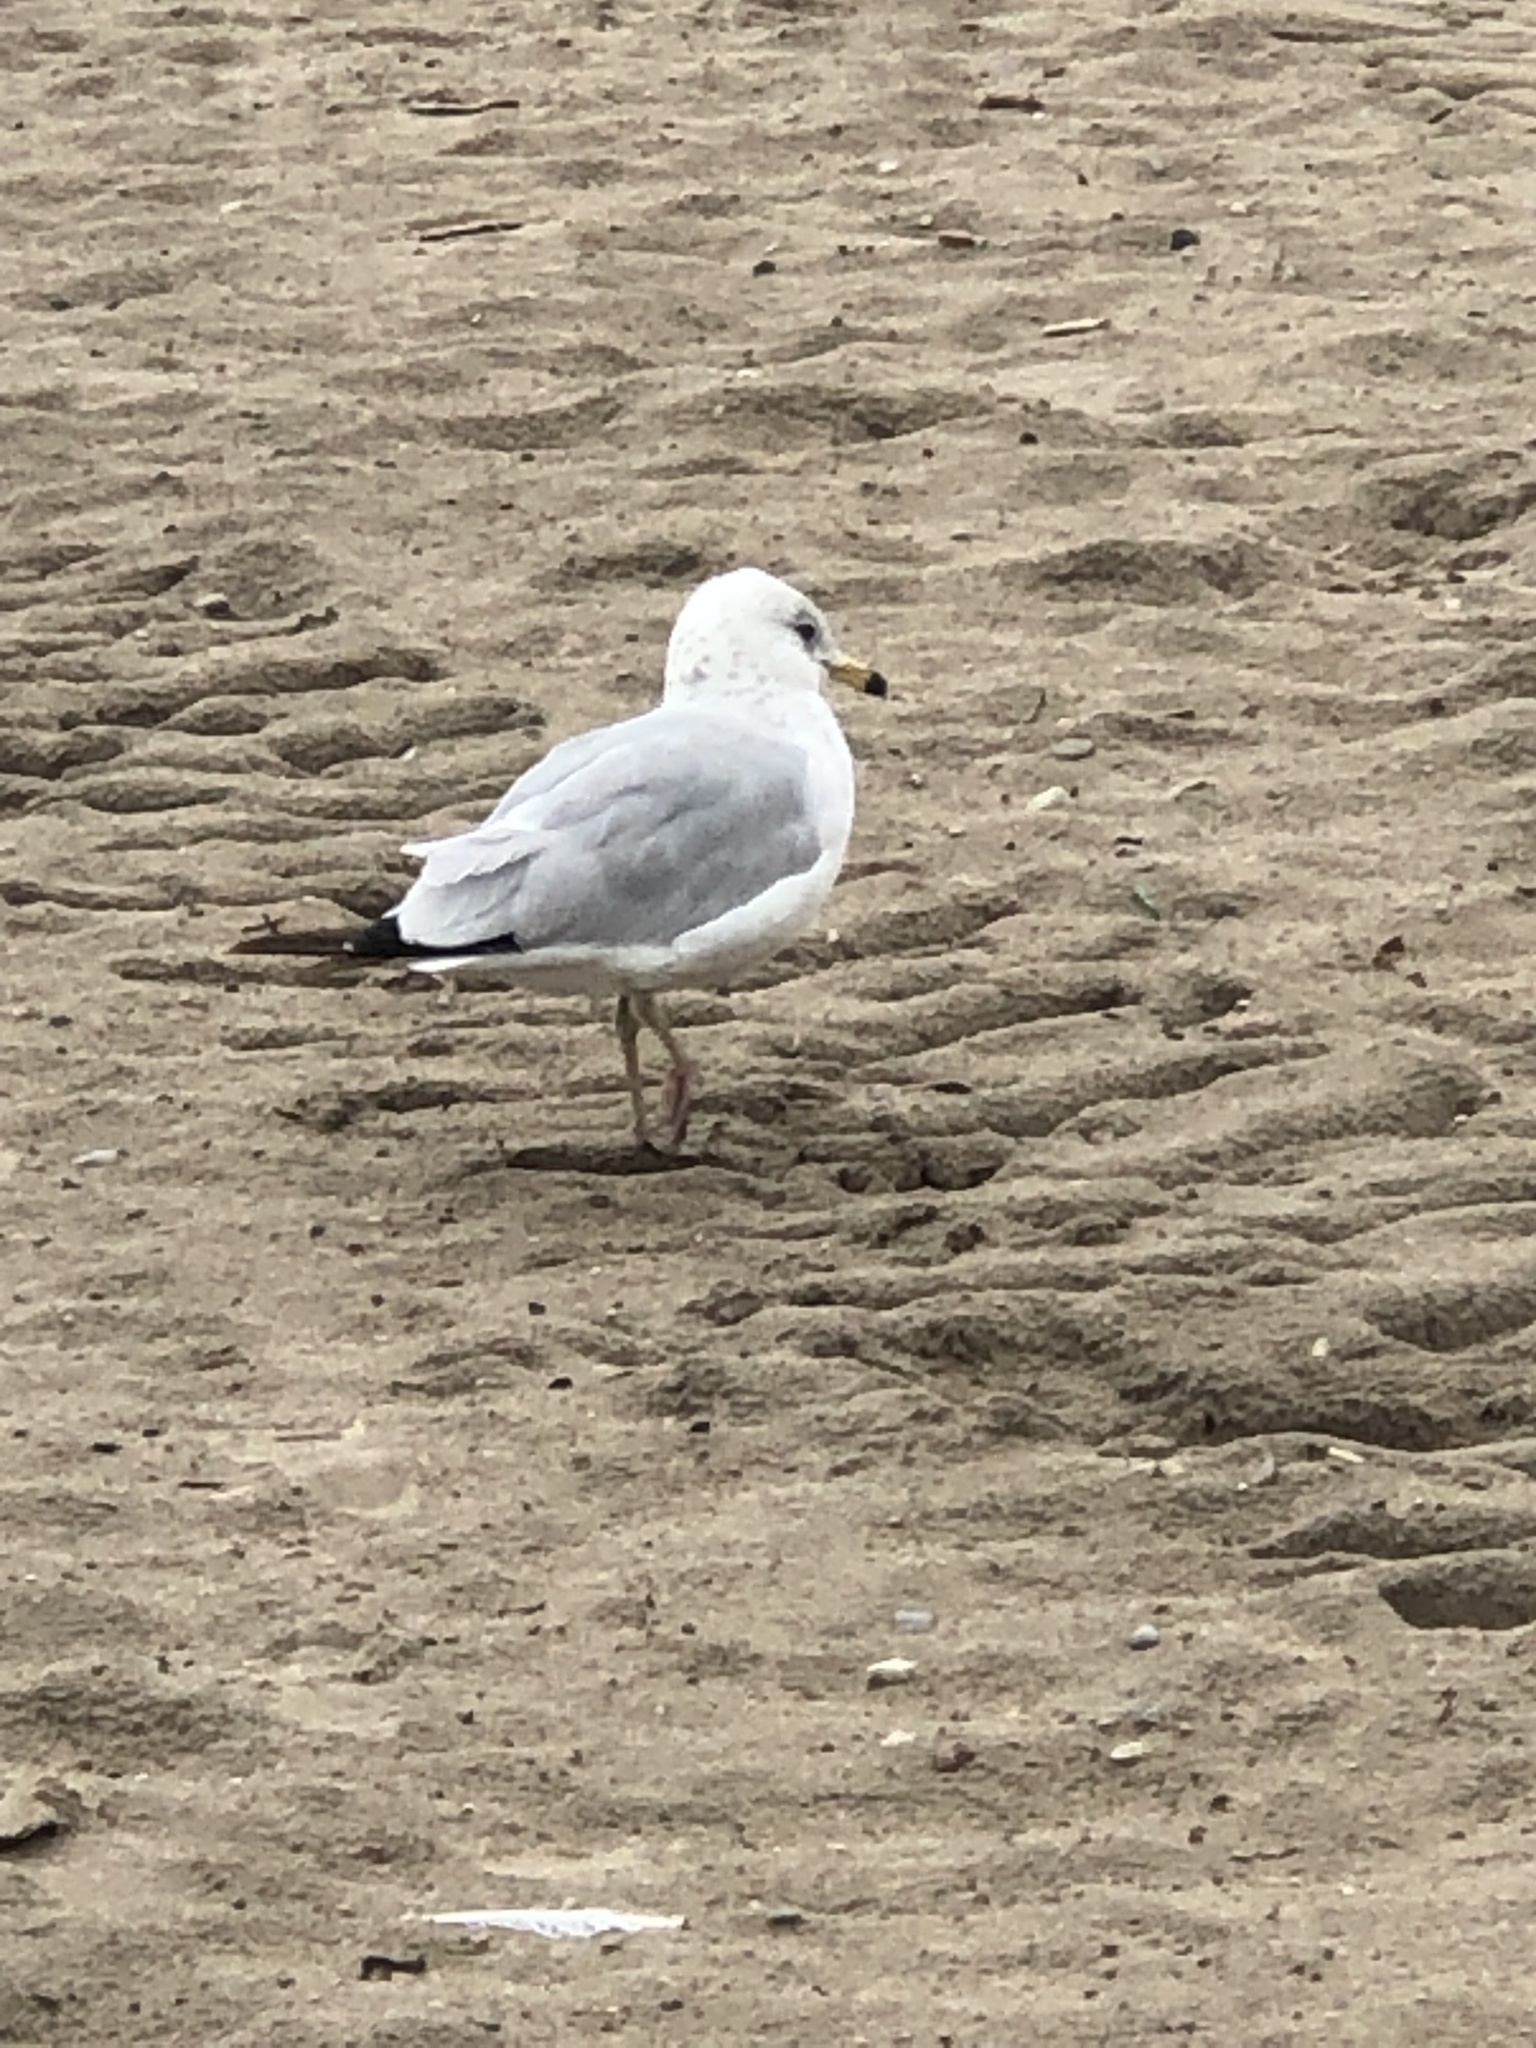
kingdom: Animalia
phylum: Chordata
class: Aves
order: Charadriiformes
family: Laridae
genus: Larus
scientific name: Larus delawarensis
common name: Ring-billed gull
